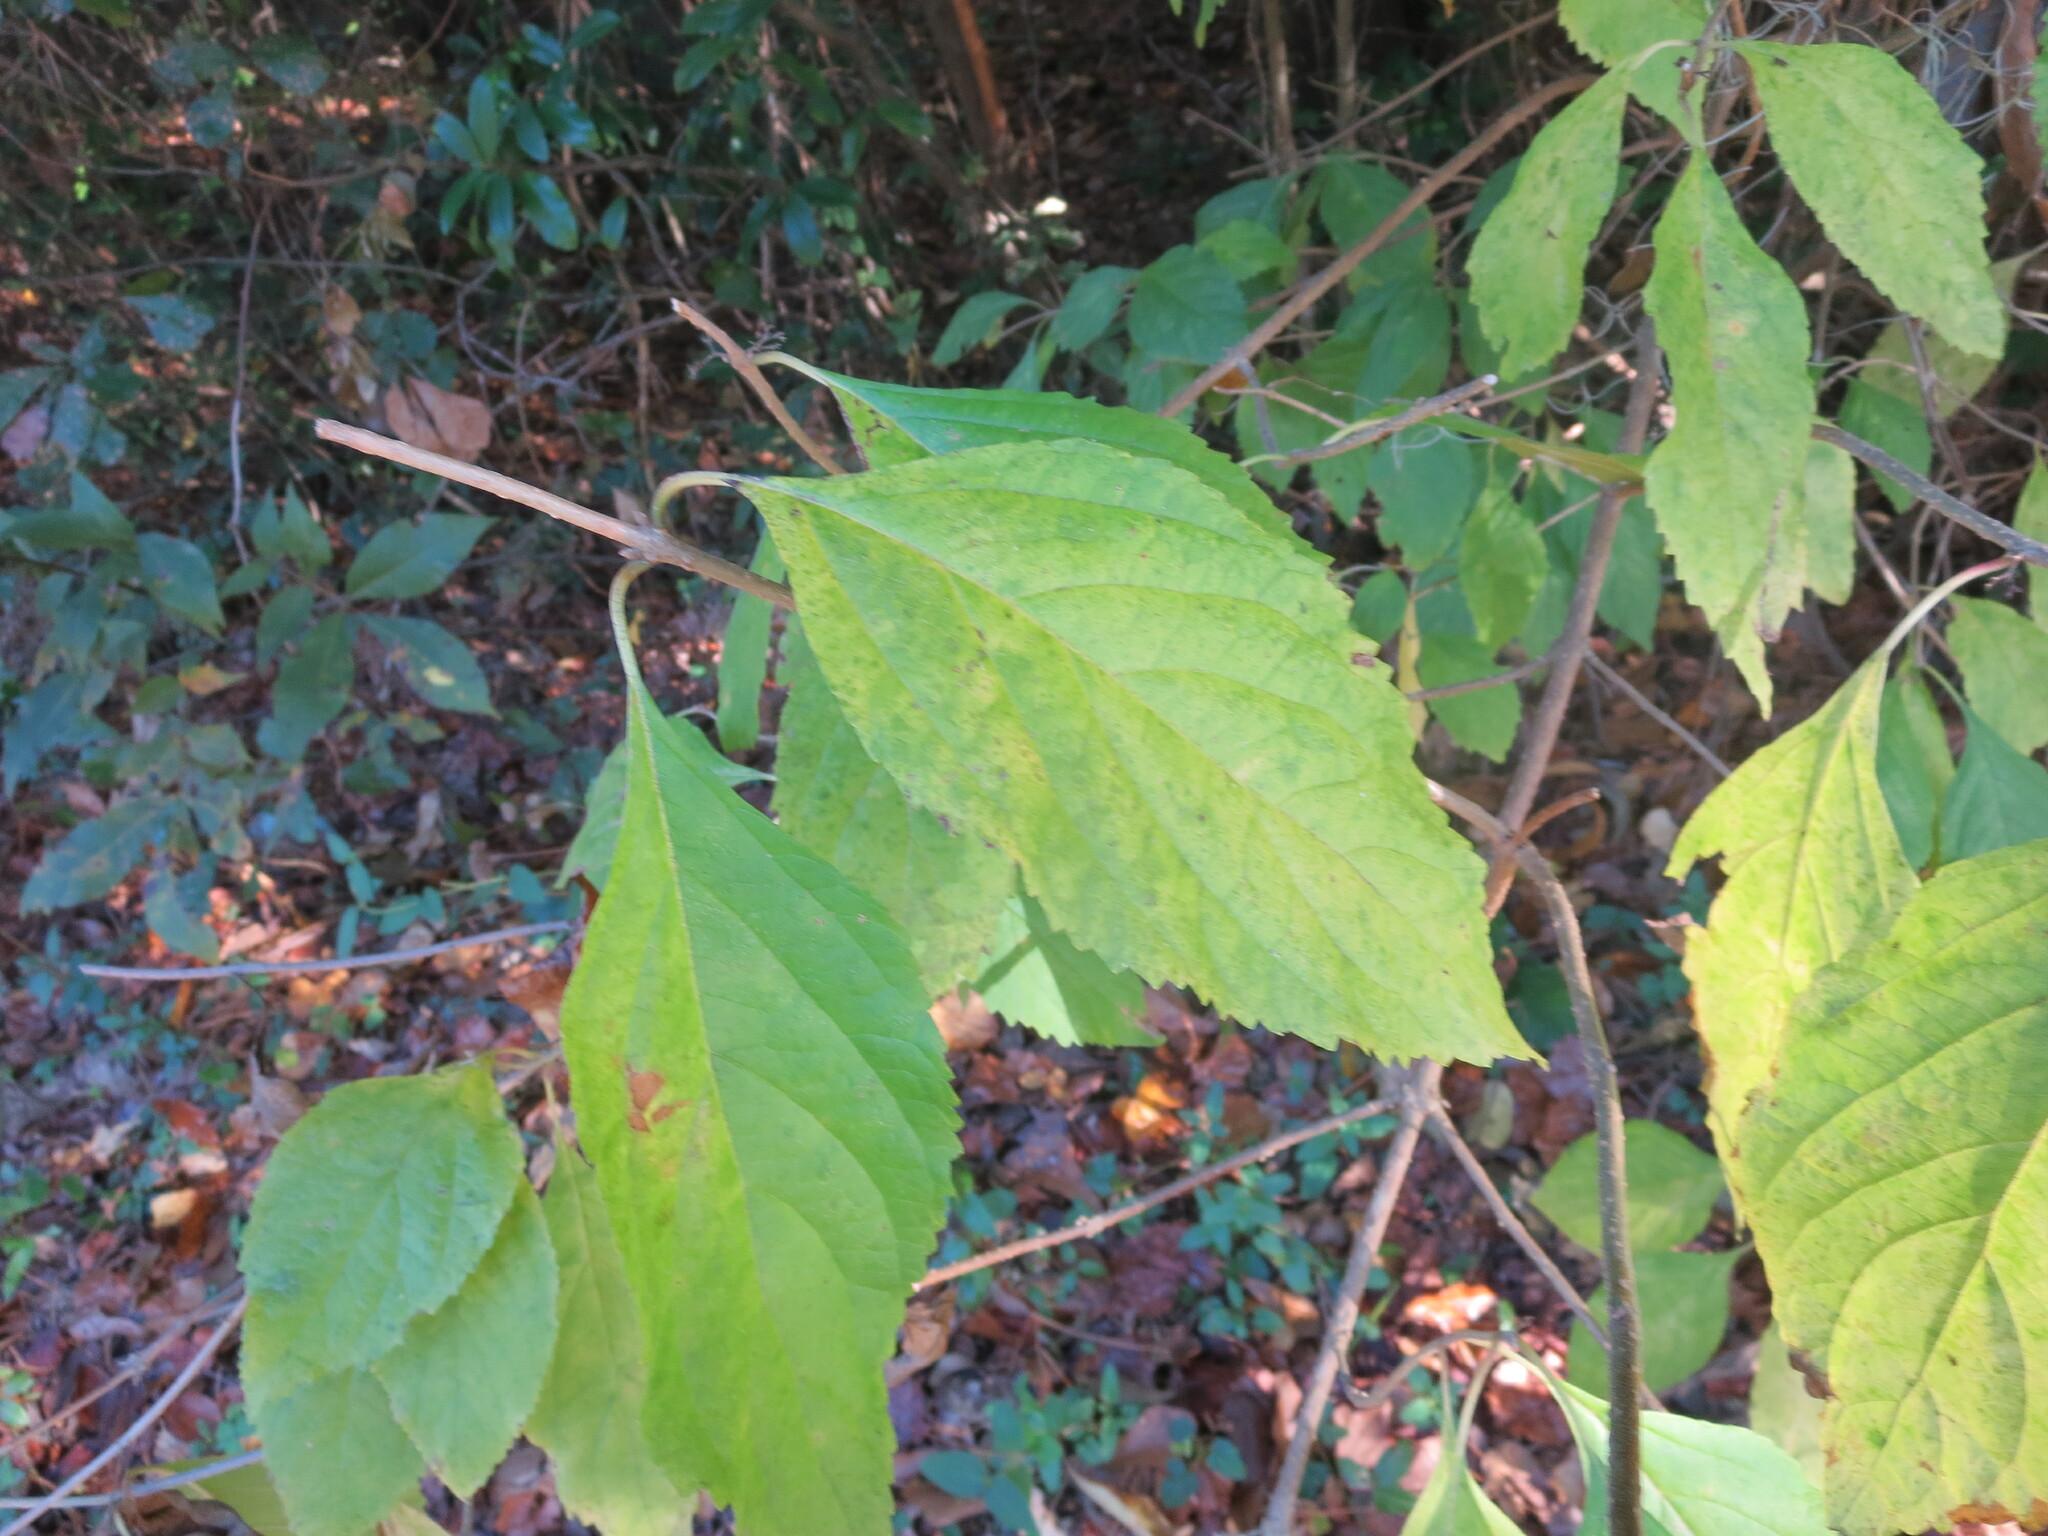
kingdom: Plantae
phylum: Tracheophyta
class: Magnoliopsida
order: Lamiales
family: Lamiaceae
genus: Callicarpa
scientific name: Callicarpa americana
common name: American beautyberry
